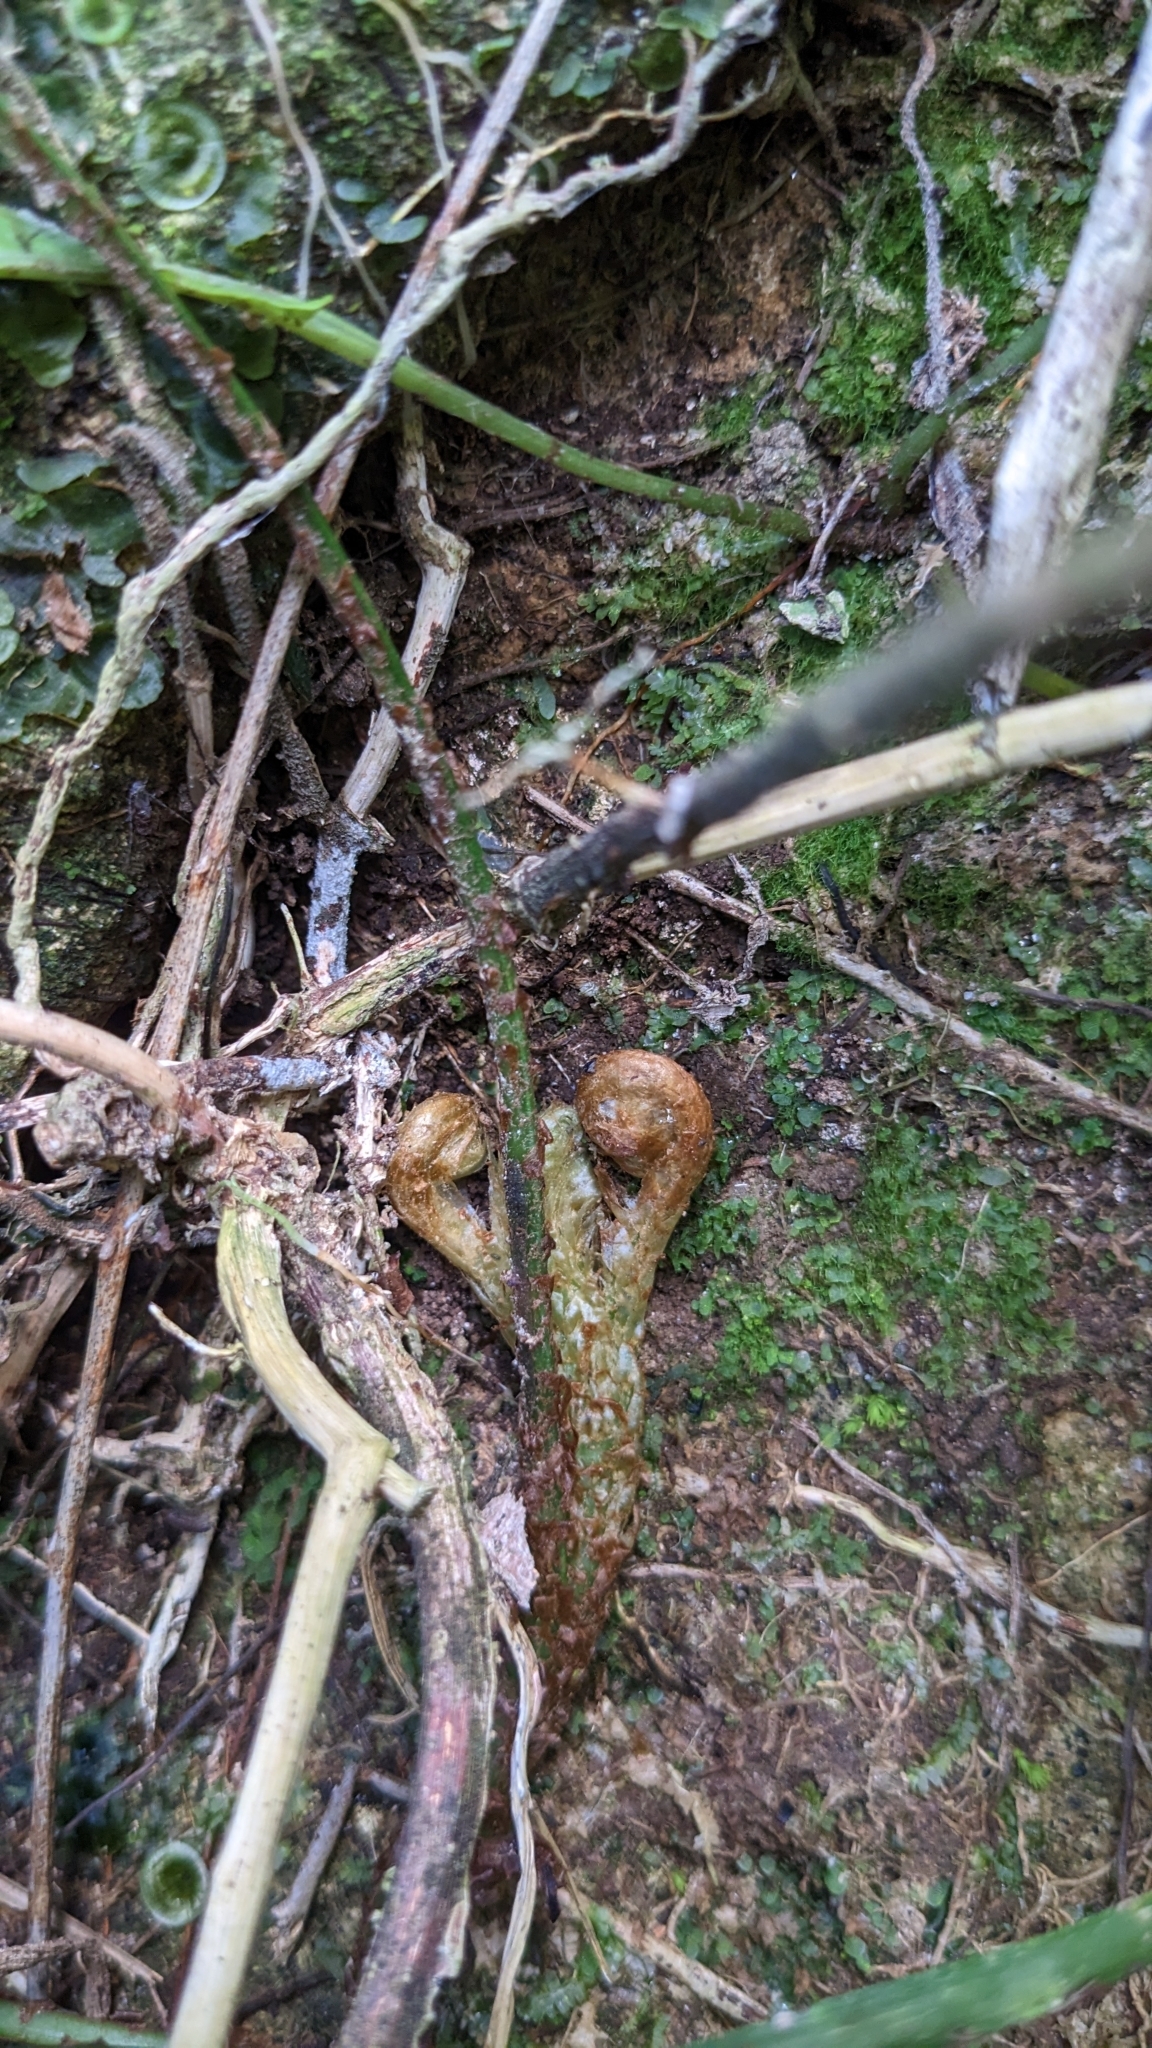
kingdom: Plantae
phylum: Tracheophyta
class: Polypodiopsida
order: Polypodiales
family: Lomariopsidaceae
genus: Lomariopsis
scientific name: Lomariopsis boninensis
